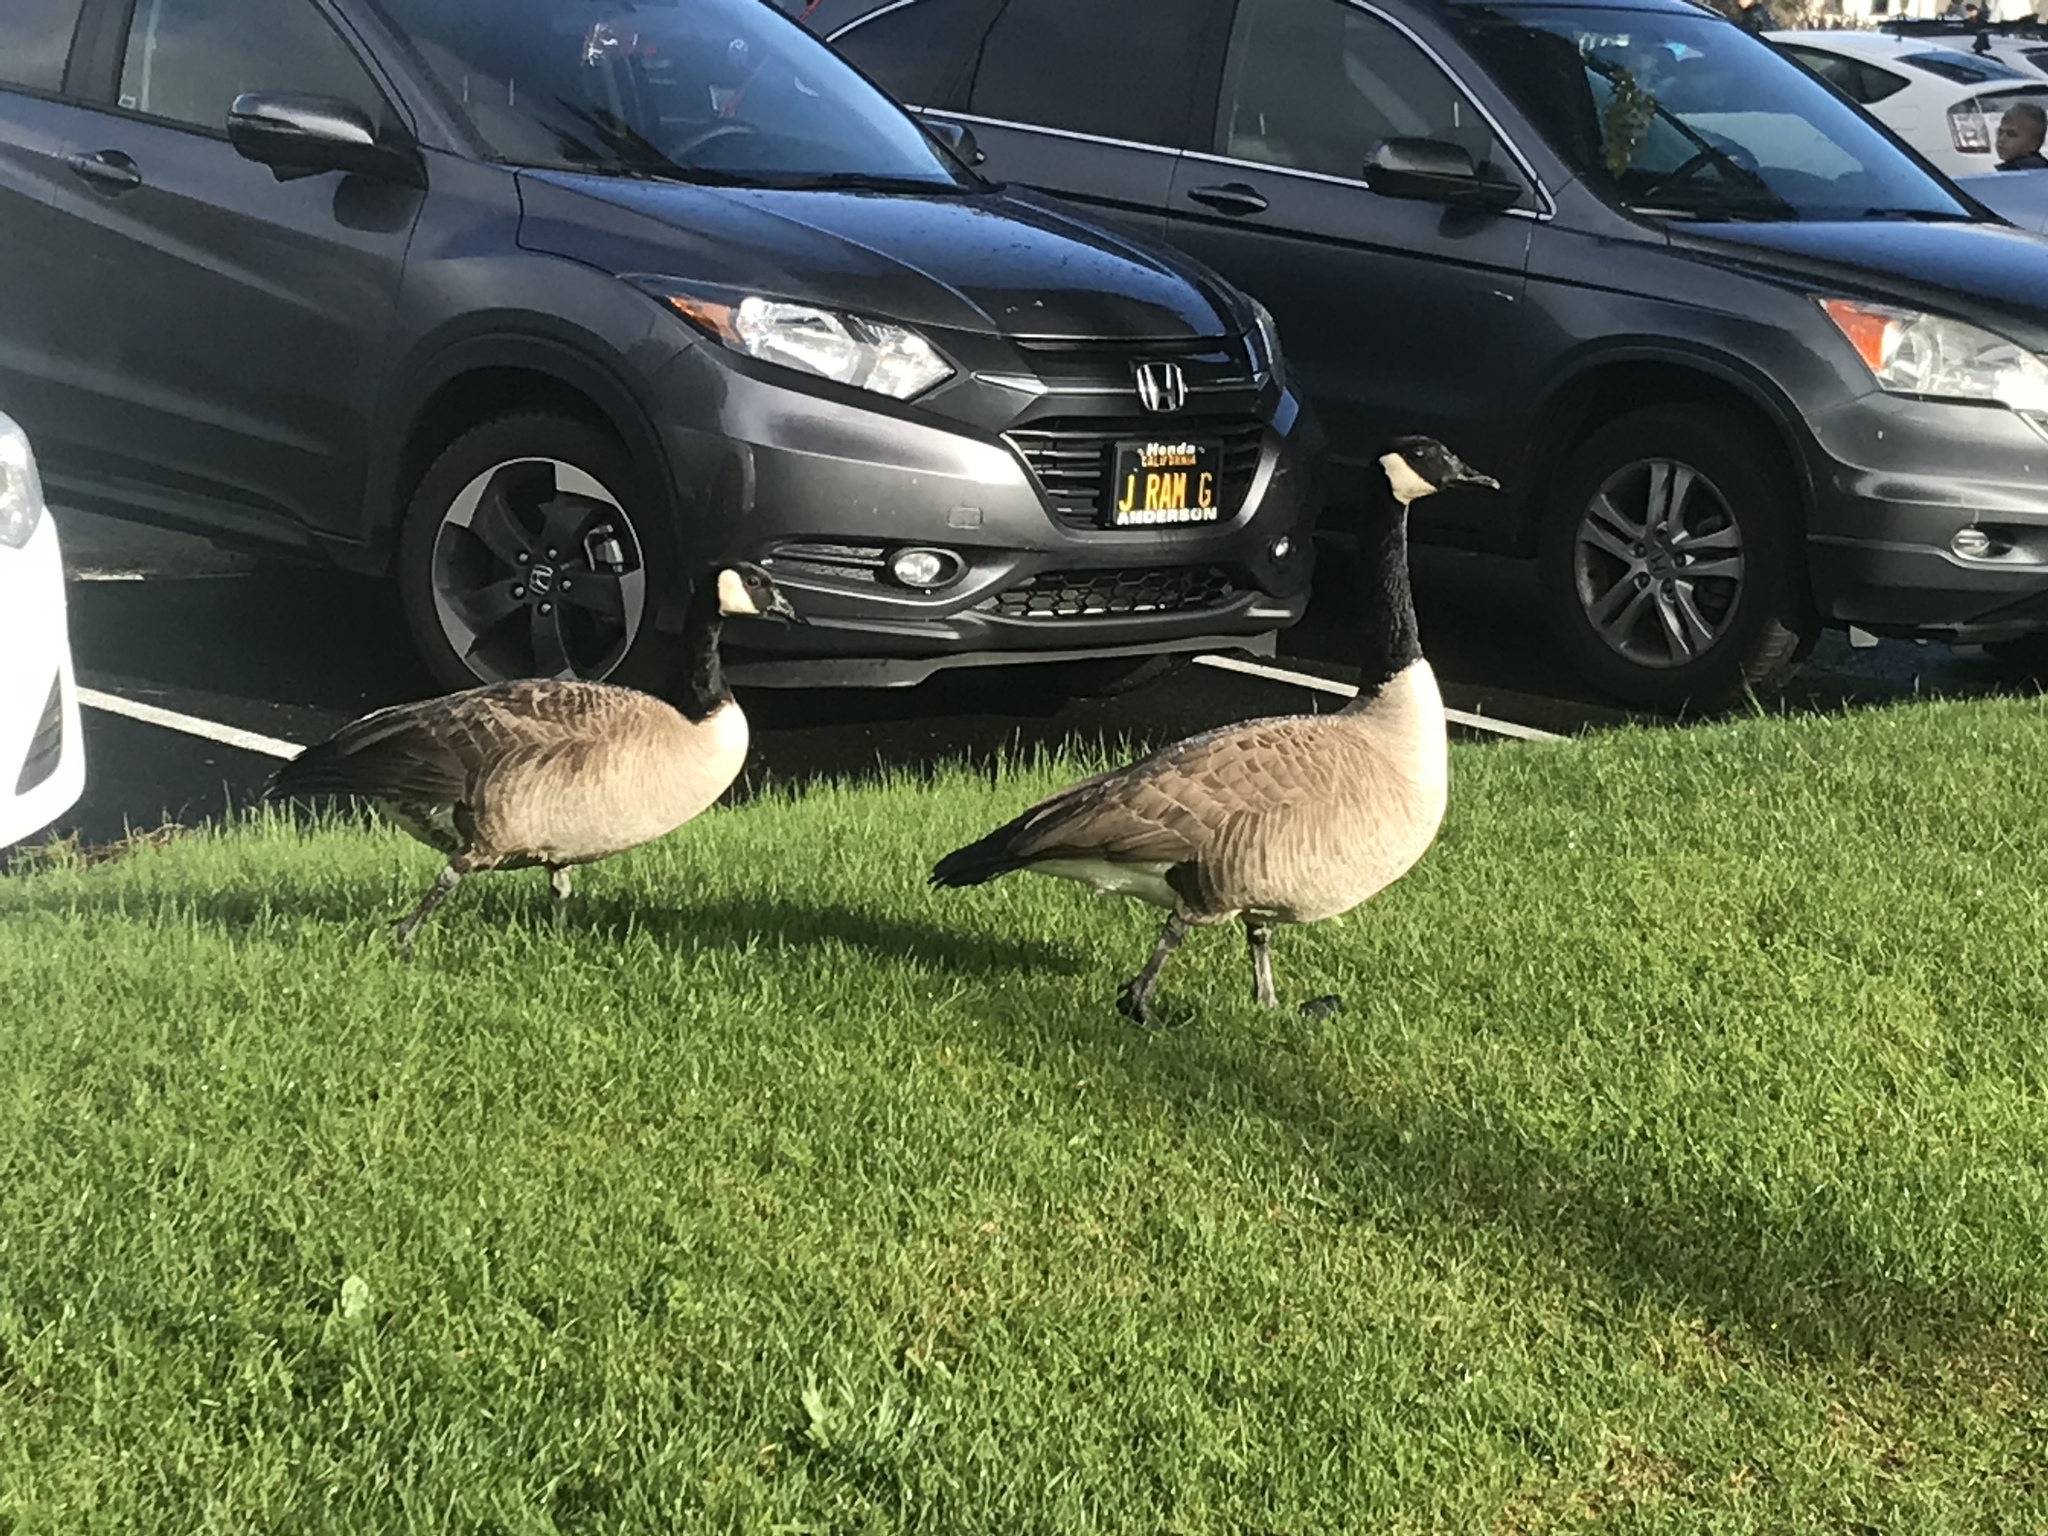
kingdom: Animalia
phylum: Chordata
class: Aves
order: Anseriformes
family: Anatidae
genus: Branta
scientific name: Branta canadensis
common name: Canada goose
